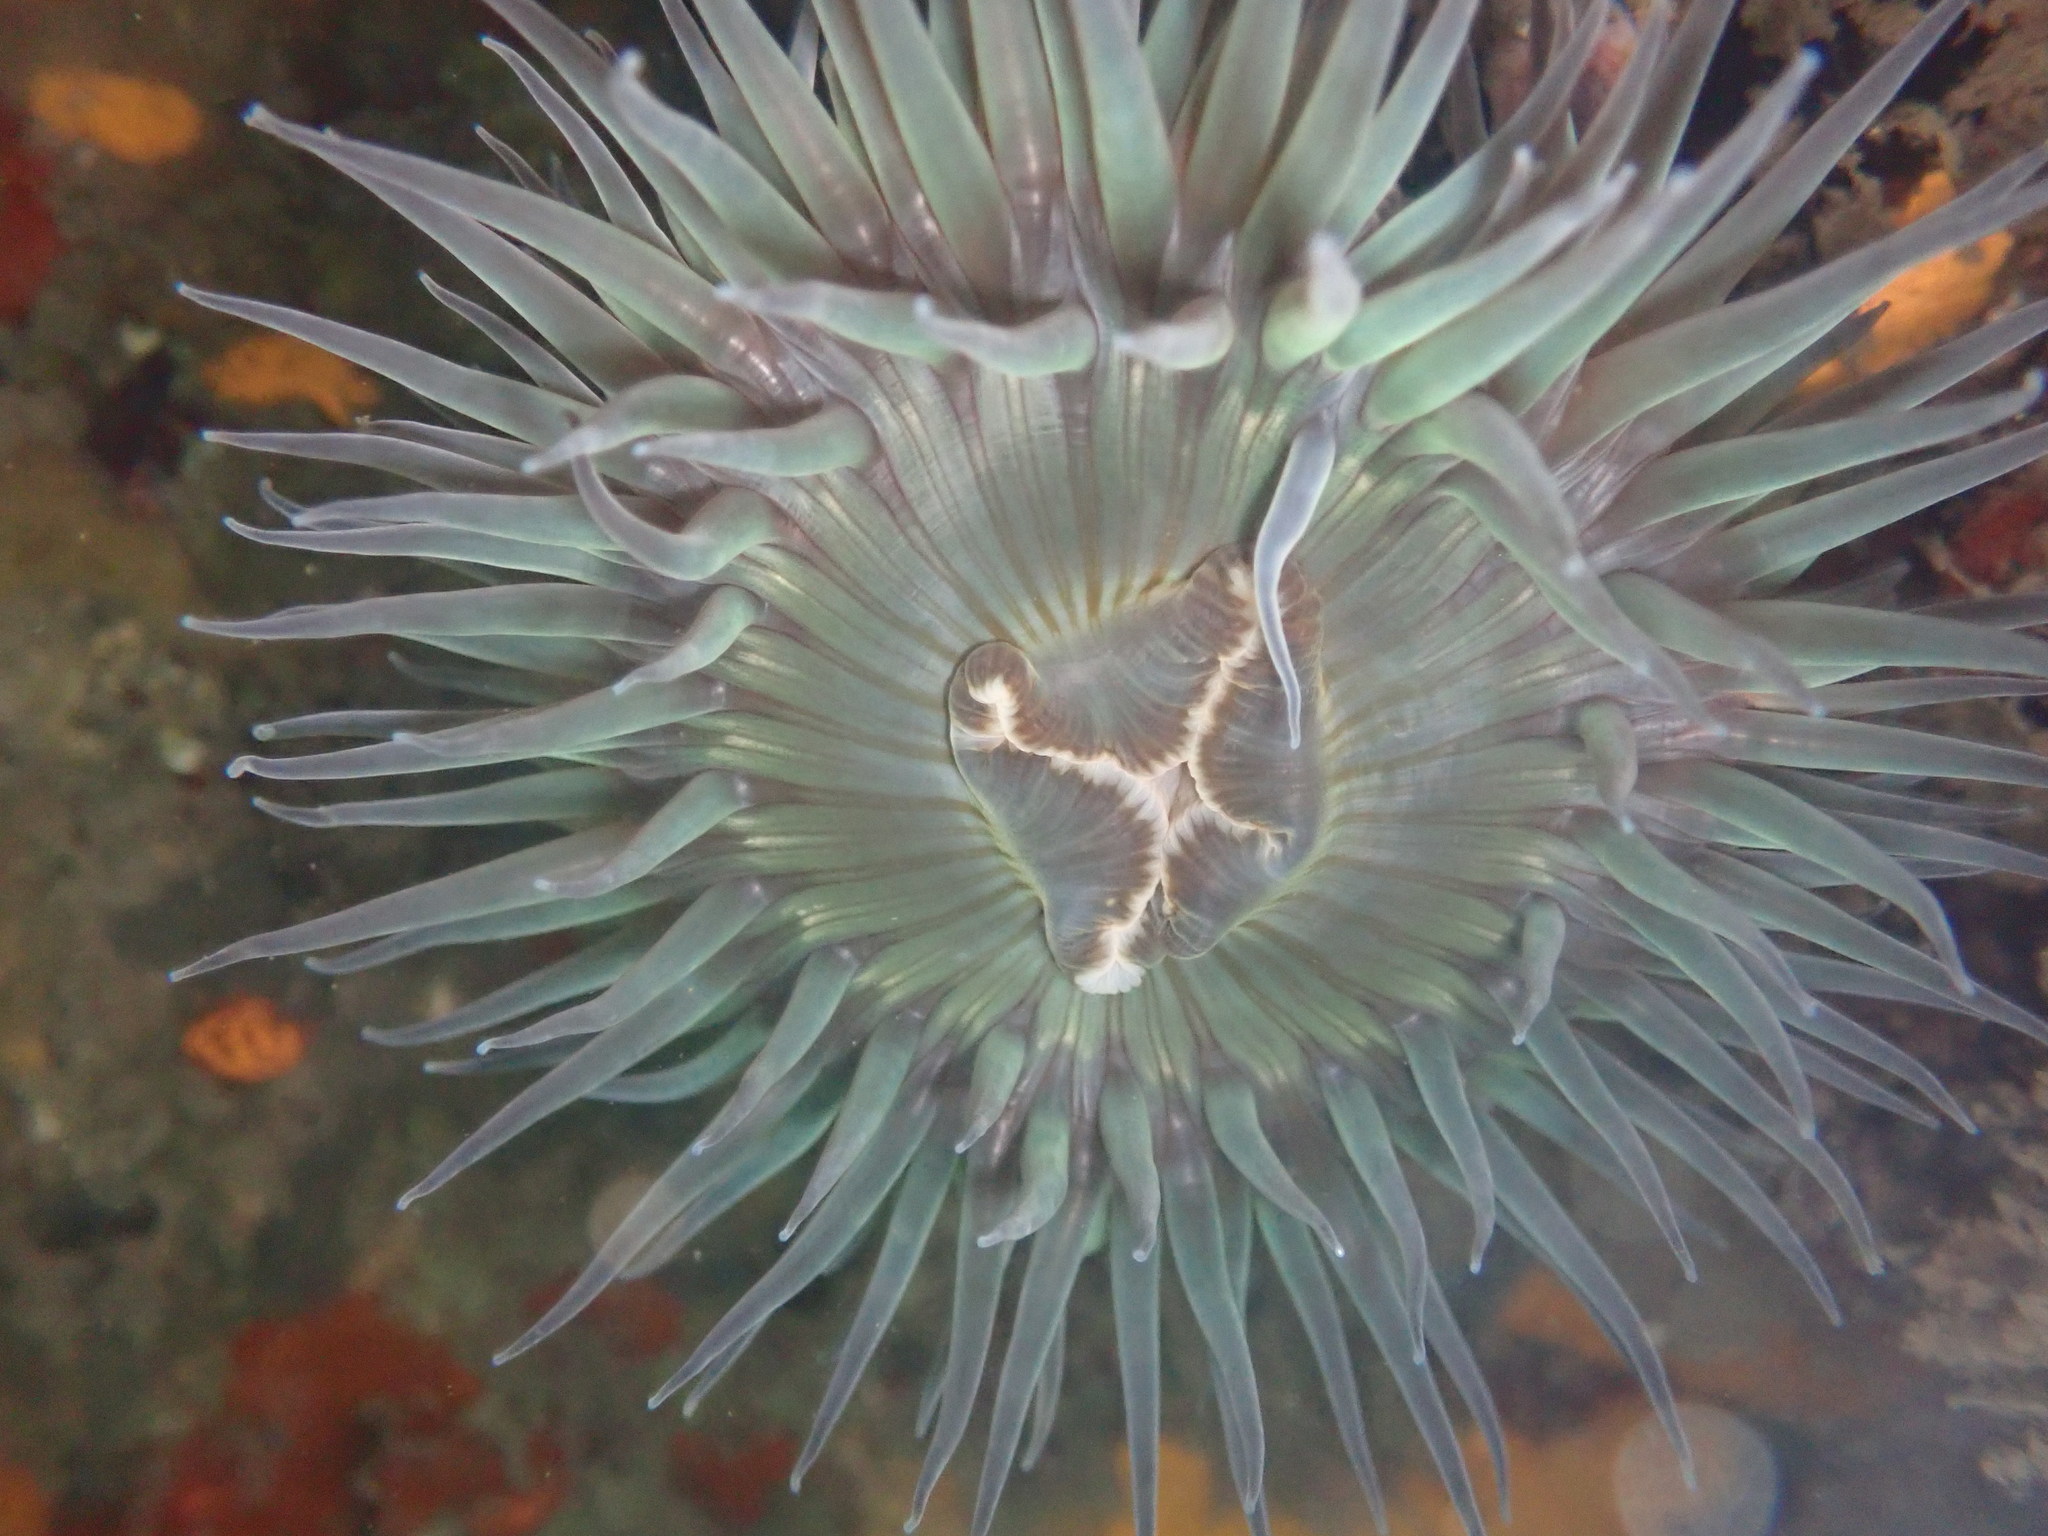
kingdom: Animalia
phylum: Cnidaria
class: Anthozoa
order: Actiniaria
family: Actiniidae
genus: Anthopleura
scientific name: Anthopleura sola
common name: Sun anemone
